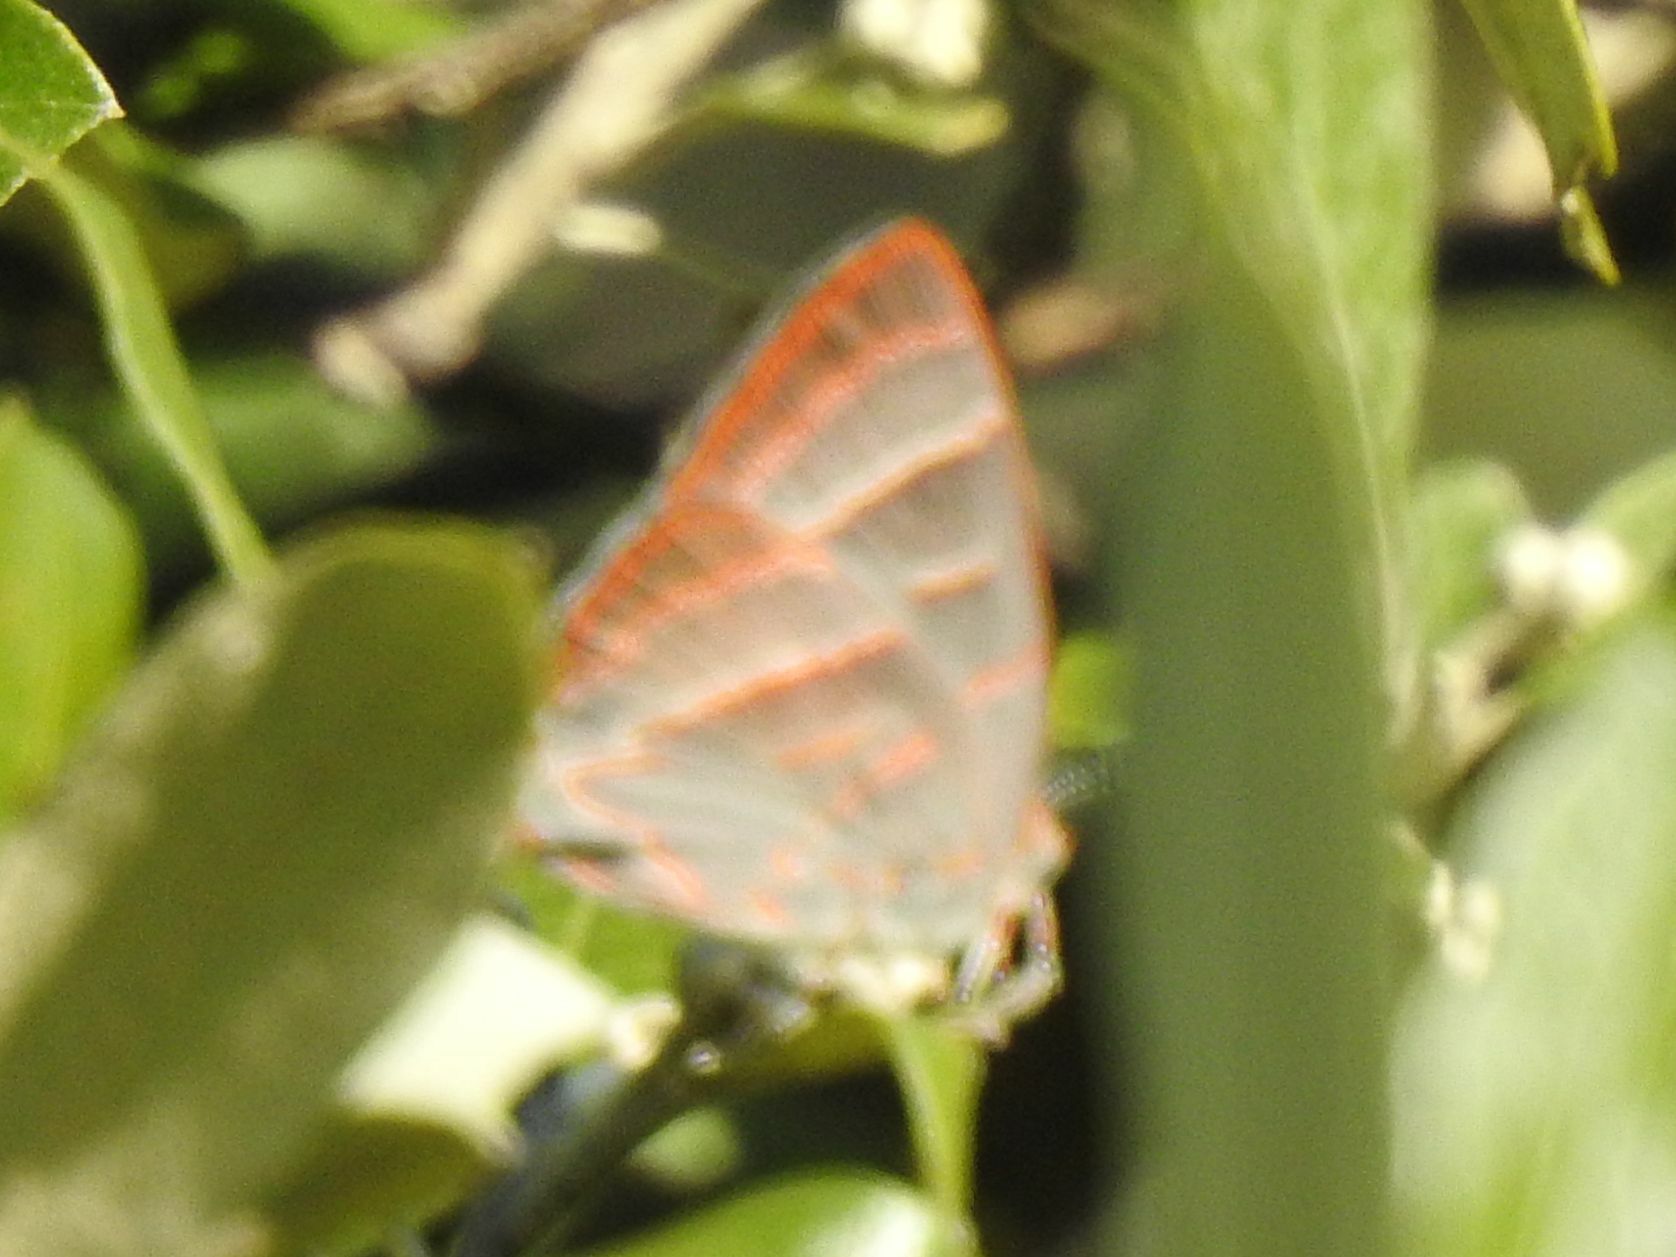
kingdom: Animalia
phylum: Arthropoda
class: Insecta
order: Lepidoptera
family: Lycaenidae
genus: Hemiolaus
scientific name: Hemiolaus caeculus
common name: Azure hairstreak
